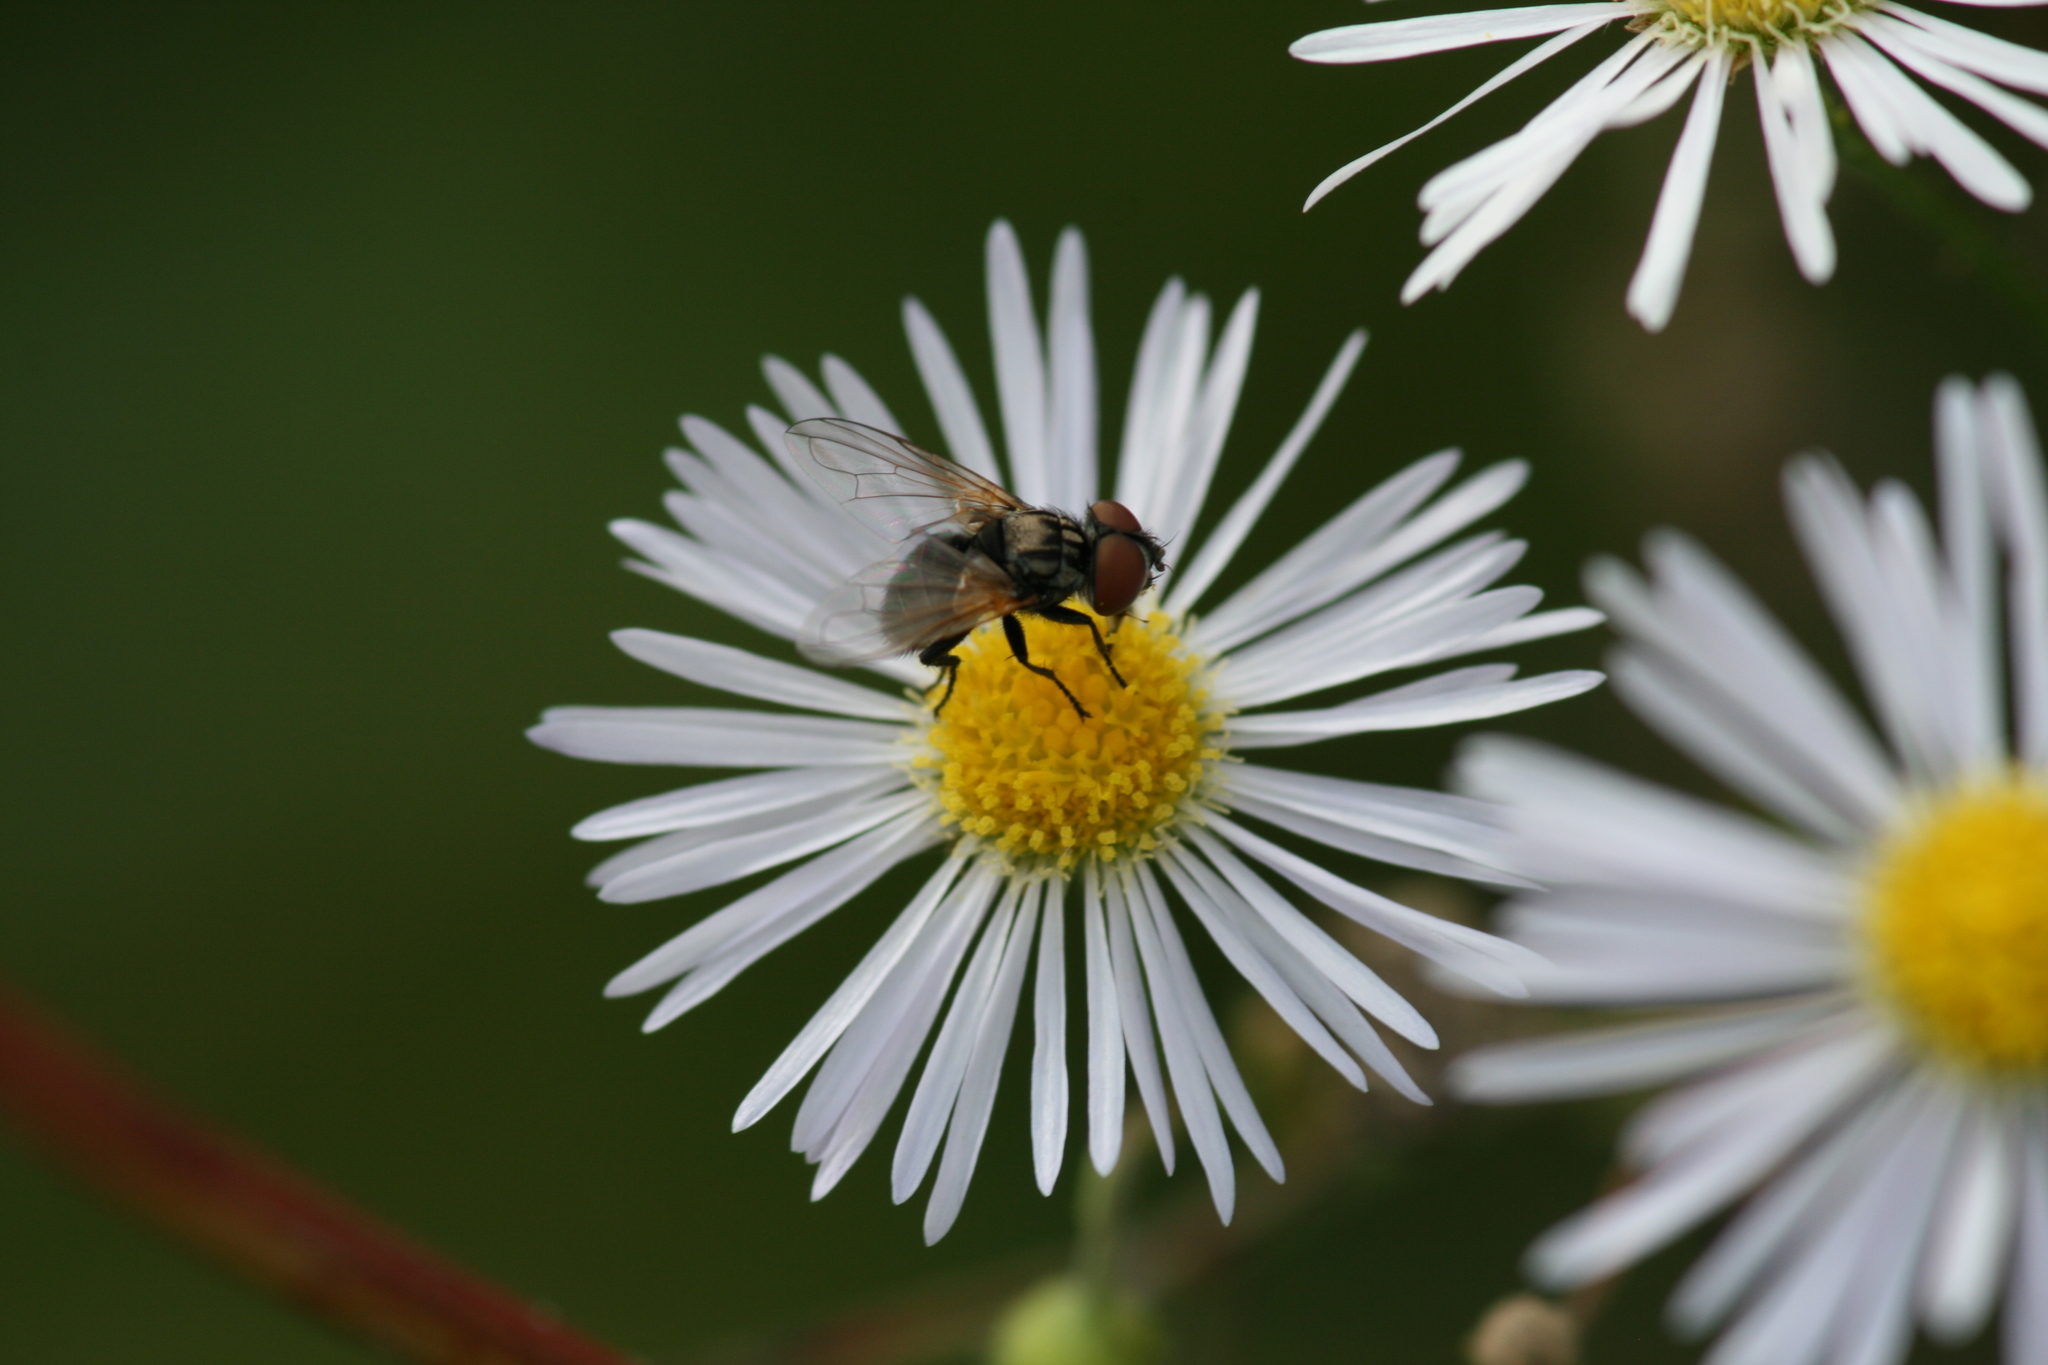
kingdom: Animalia
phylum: Arthropoda
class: Insecta
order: Diptera
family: Tachinidae
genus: Phasia
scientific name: Phasia obesa
